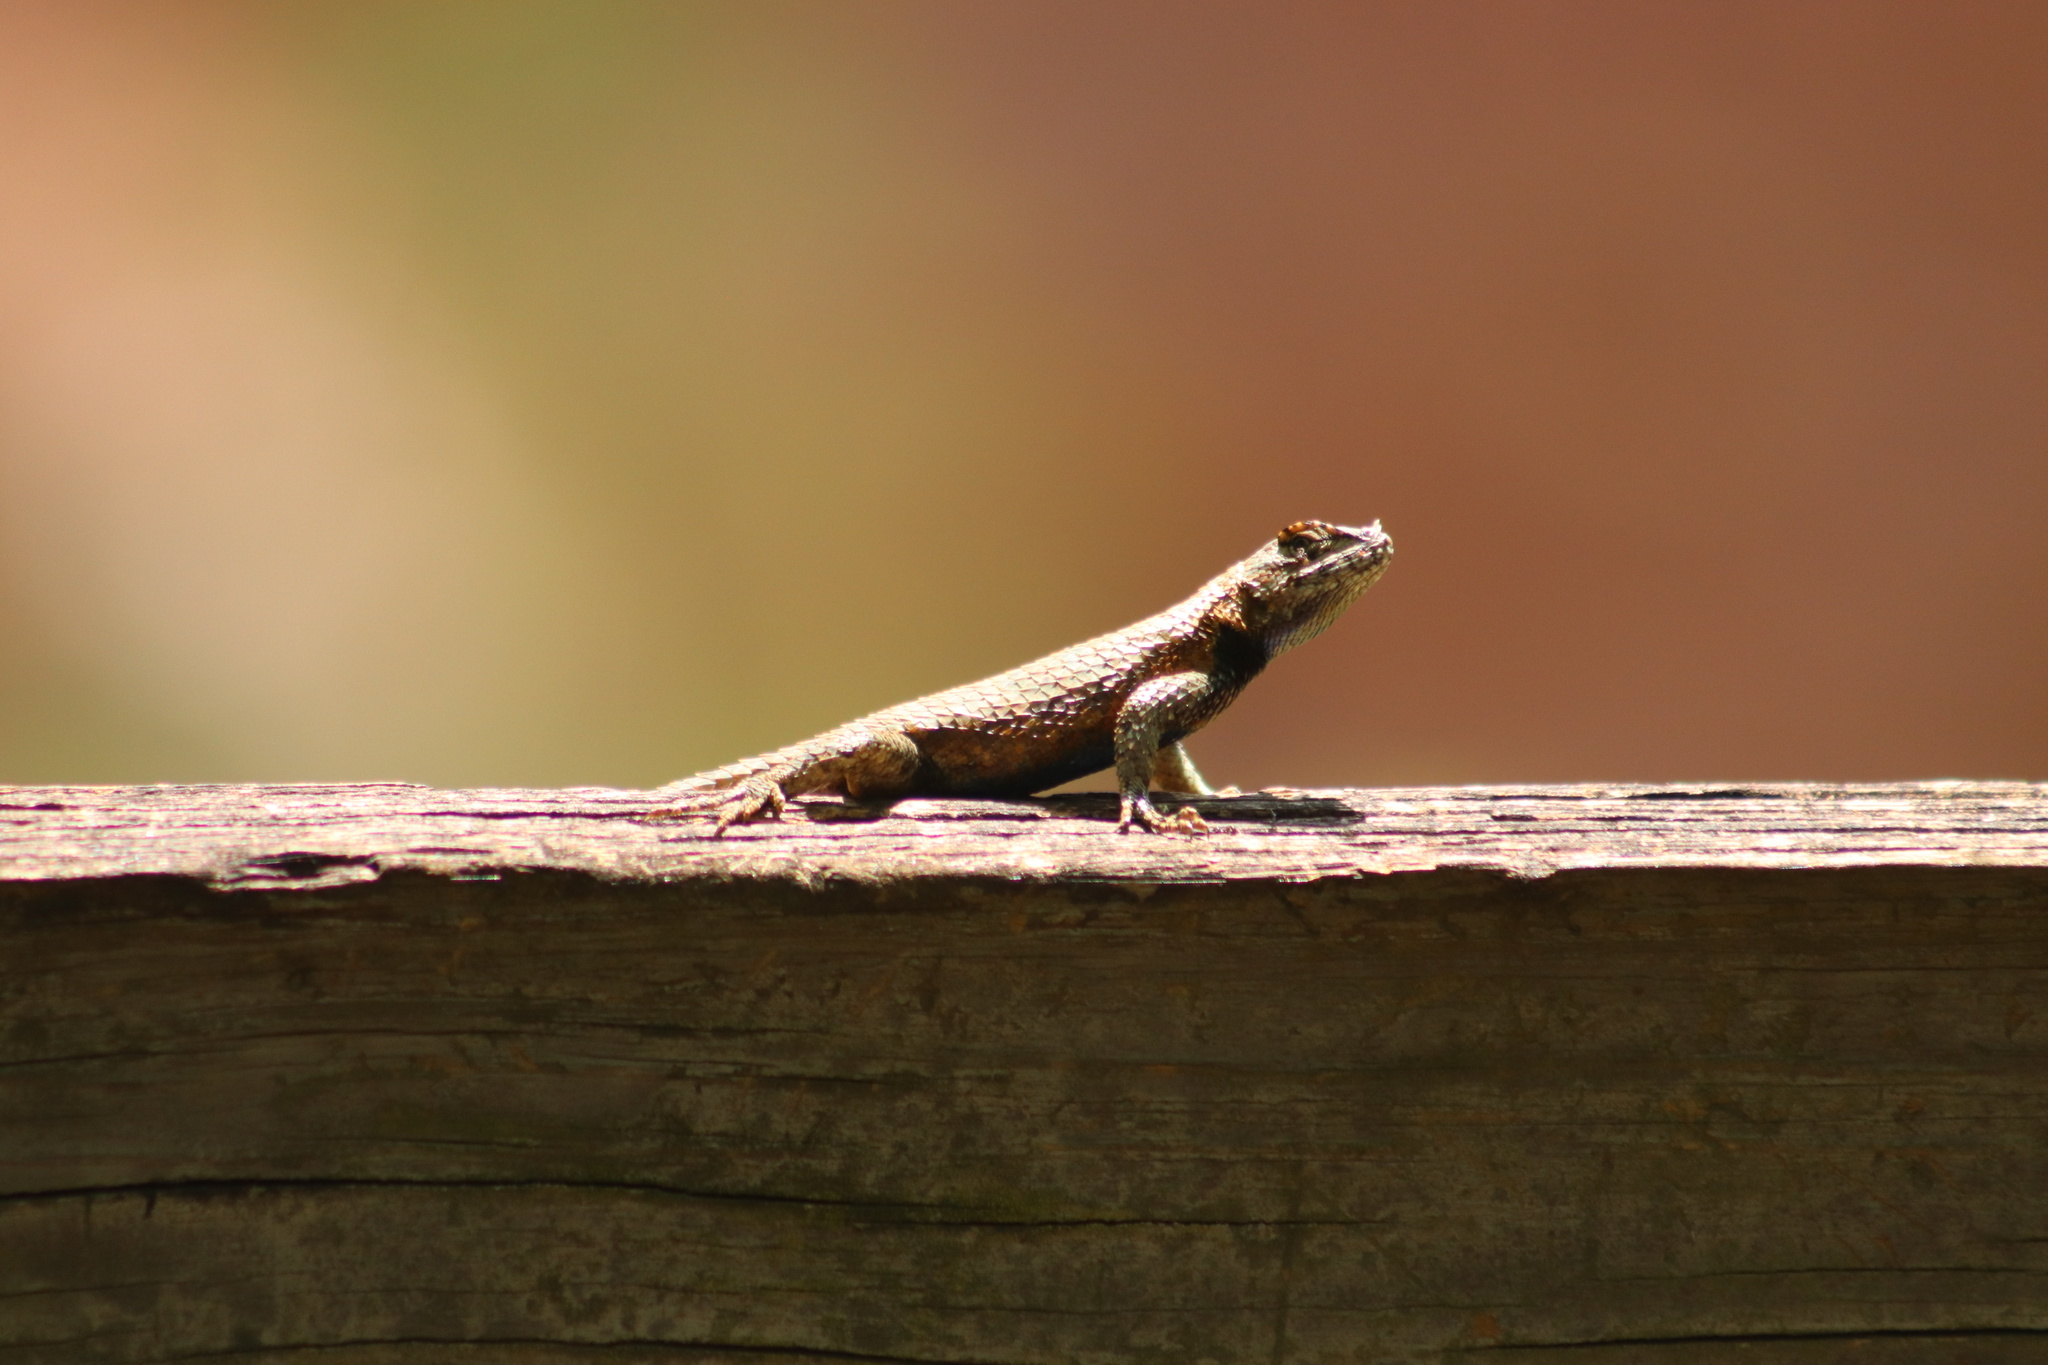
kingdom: Animalia
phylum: Chordata
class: Squamata
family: Phrynosomatidae
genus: Sceloporus
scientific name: Sceloporus undulatus
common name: Eastern fence lizard
